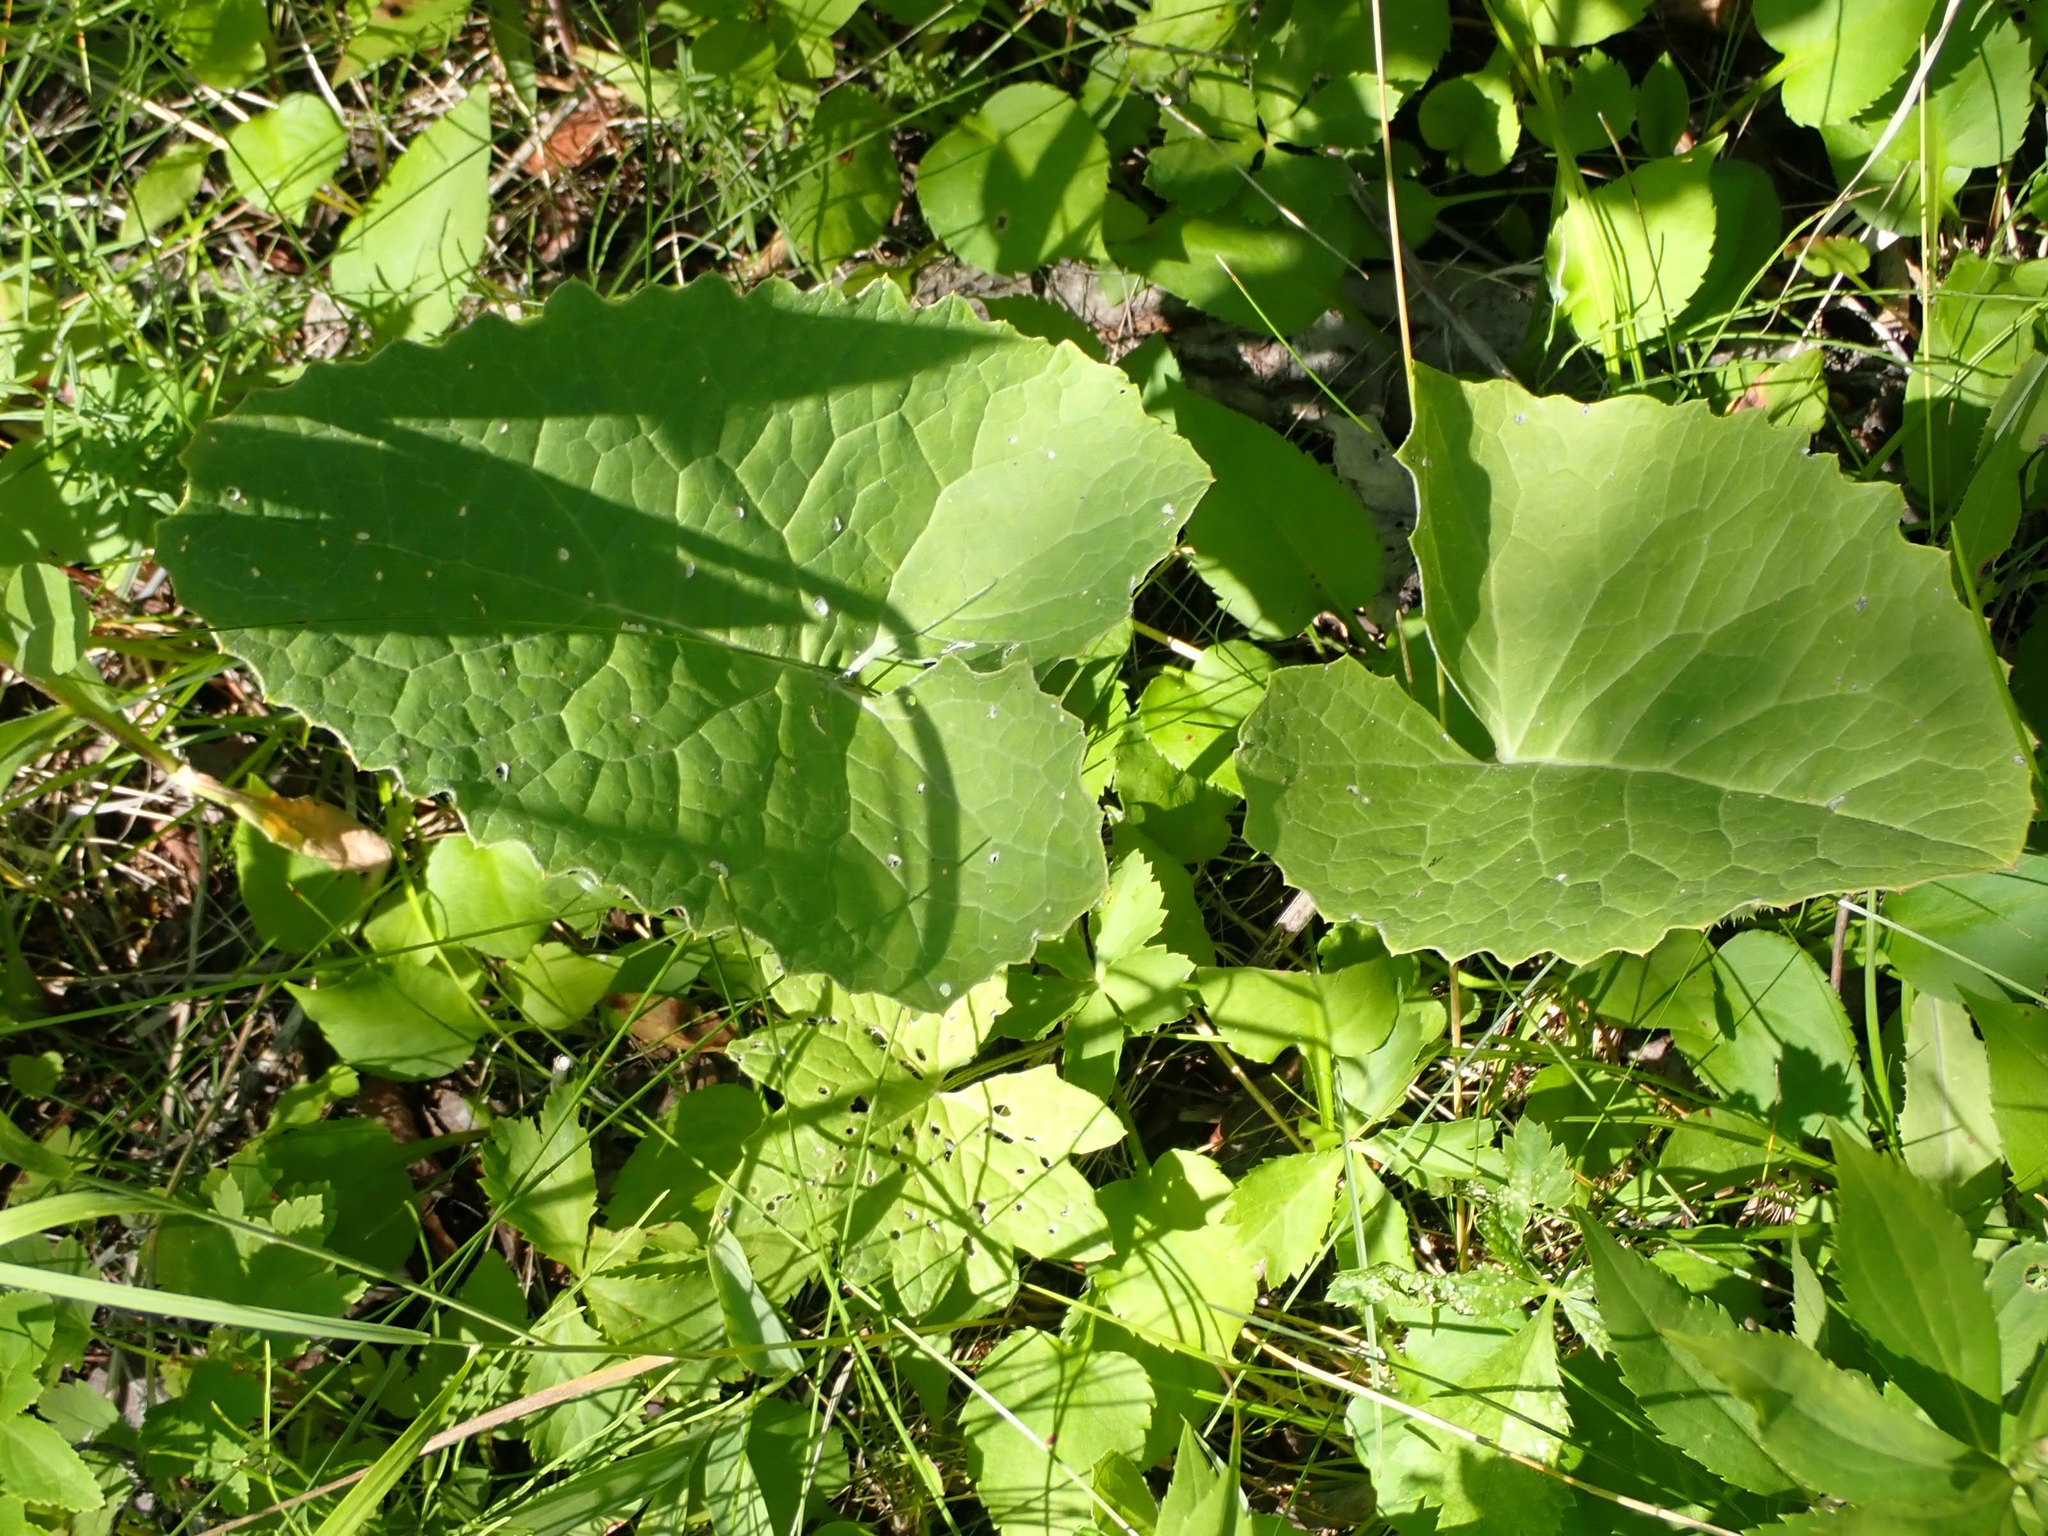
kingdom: Plantae
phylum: Tracheophyta
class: Magnoliopsida
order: Asterales
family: Asteraceae
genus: Petasites
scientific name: Petasites frigidus
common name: Arctic butterbur
